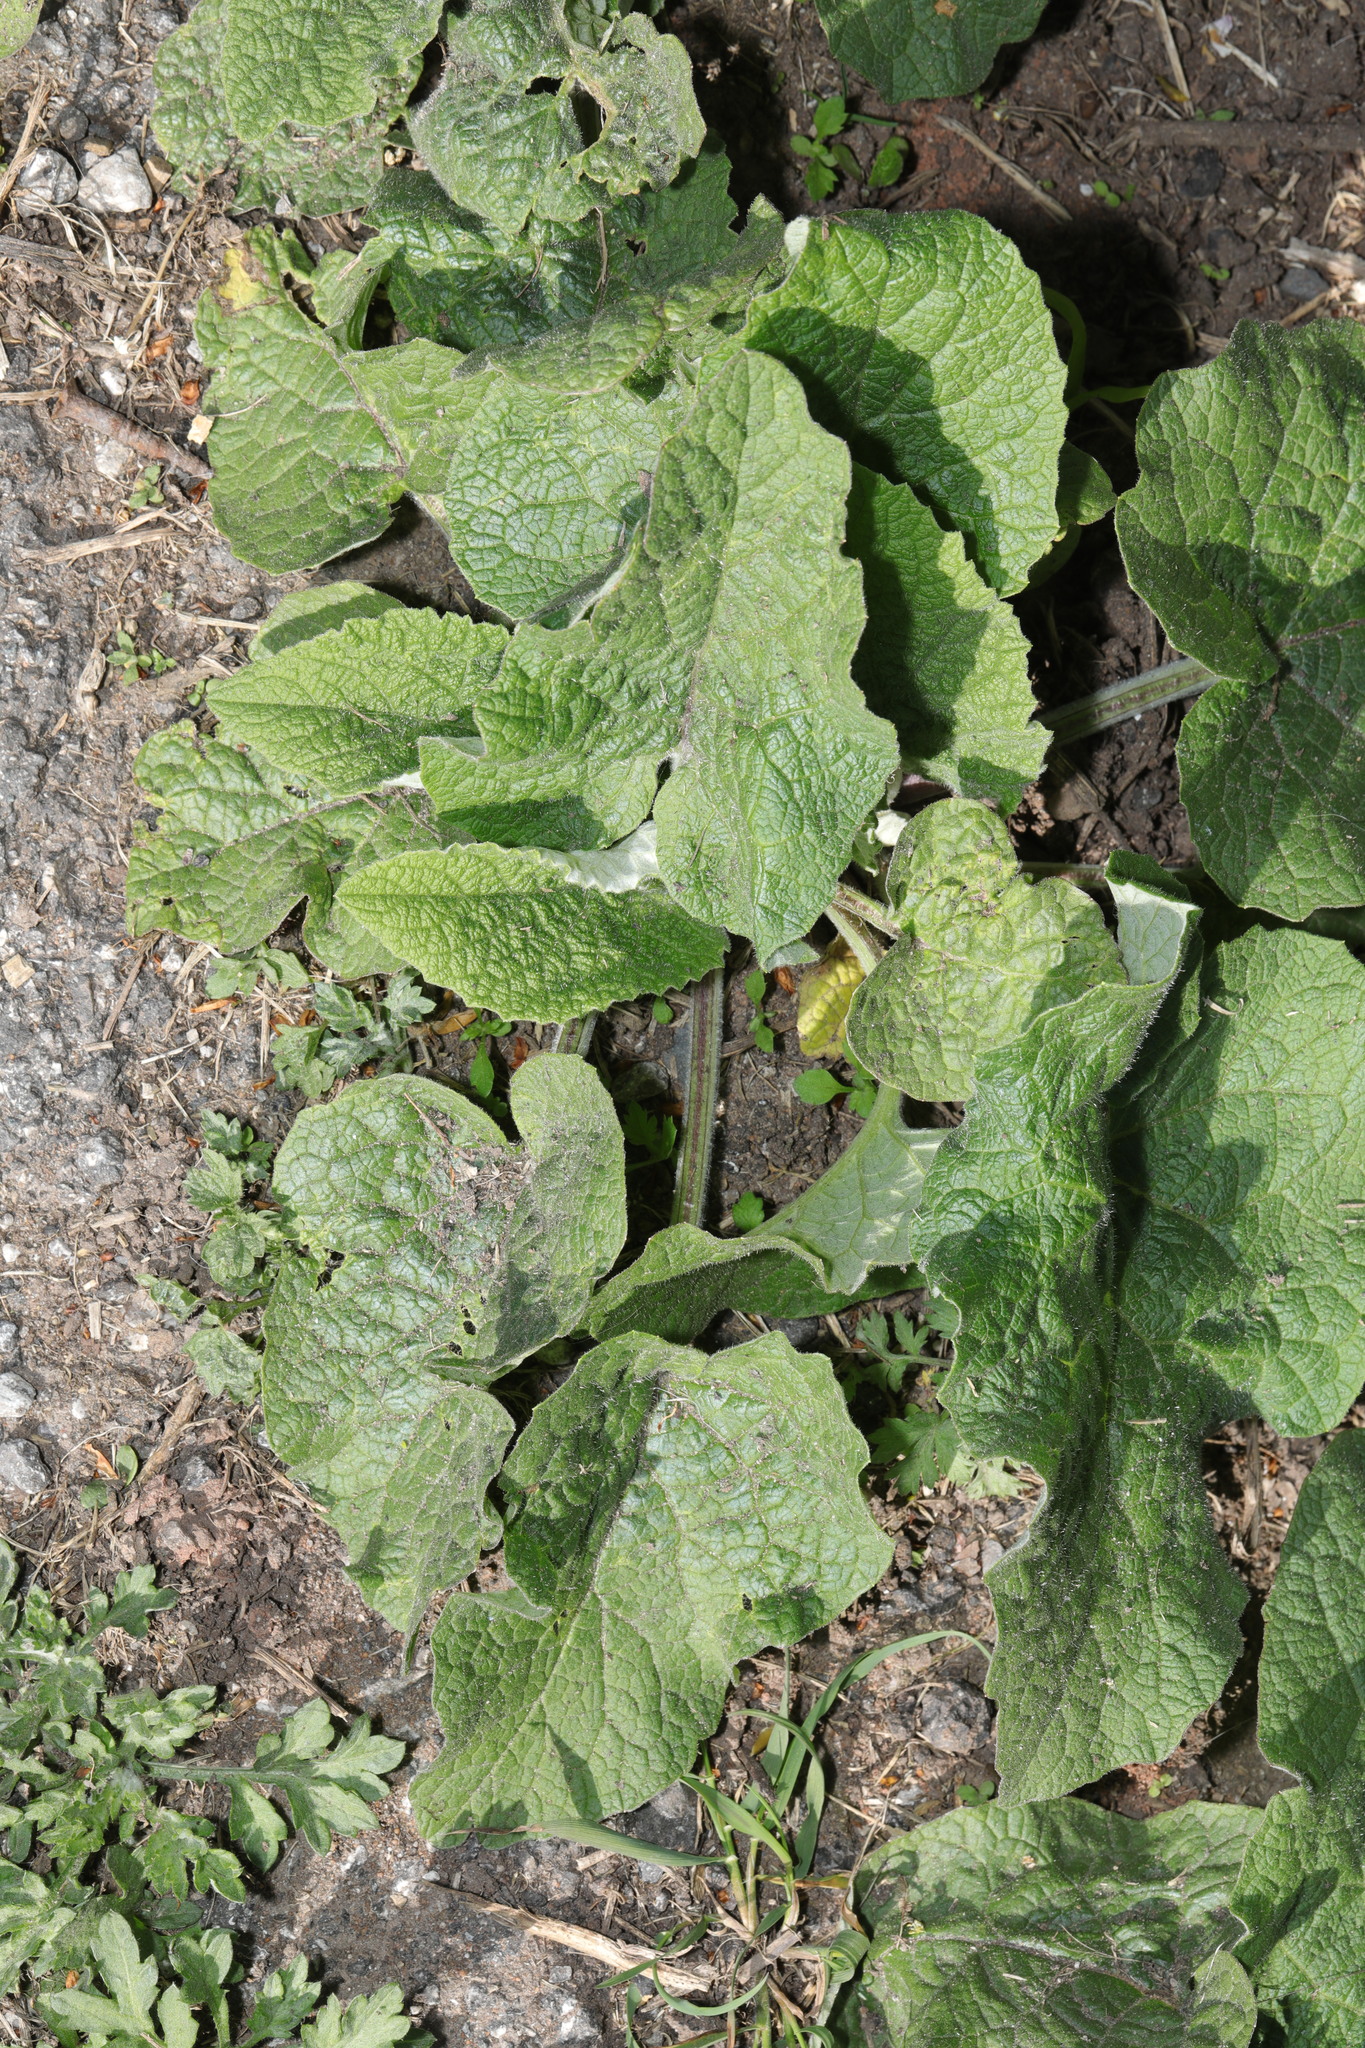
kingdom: Plantae
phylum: Tracheophyta
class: Magnoliopsida
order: Asterales
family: Asteraceae
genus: Arctium
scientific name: Arctium minus
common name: Lesser burdock
